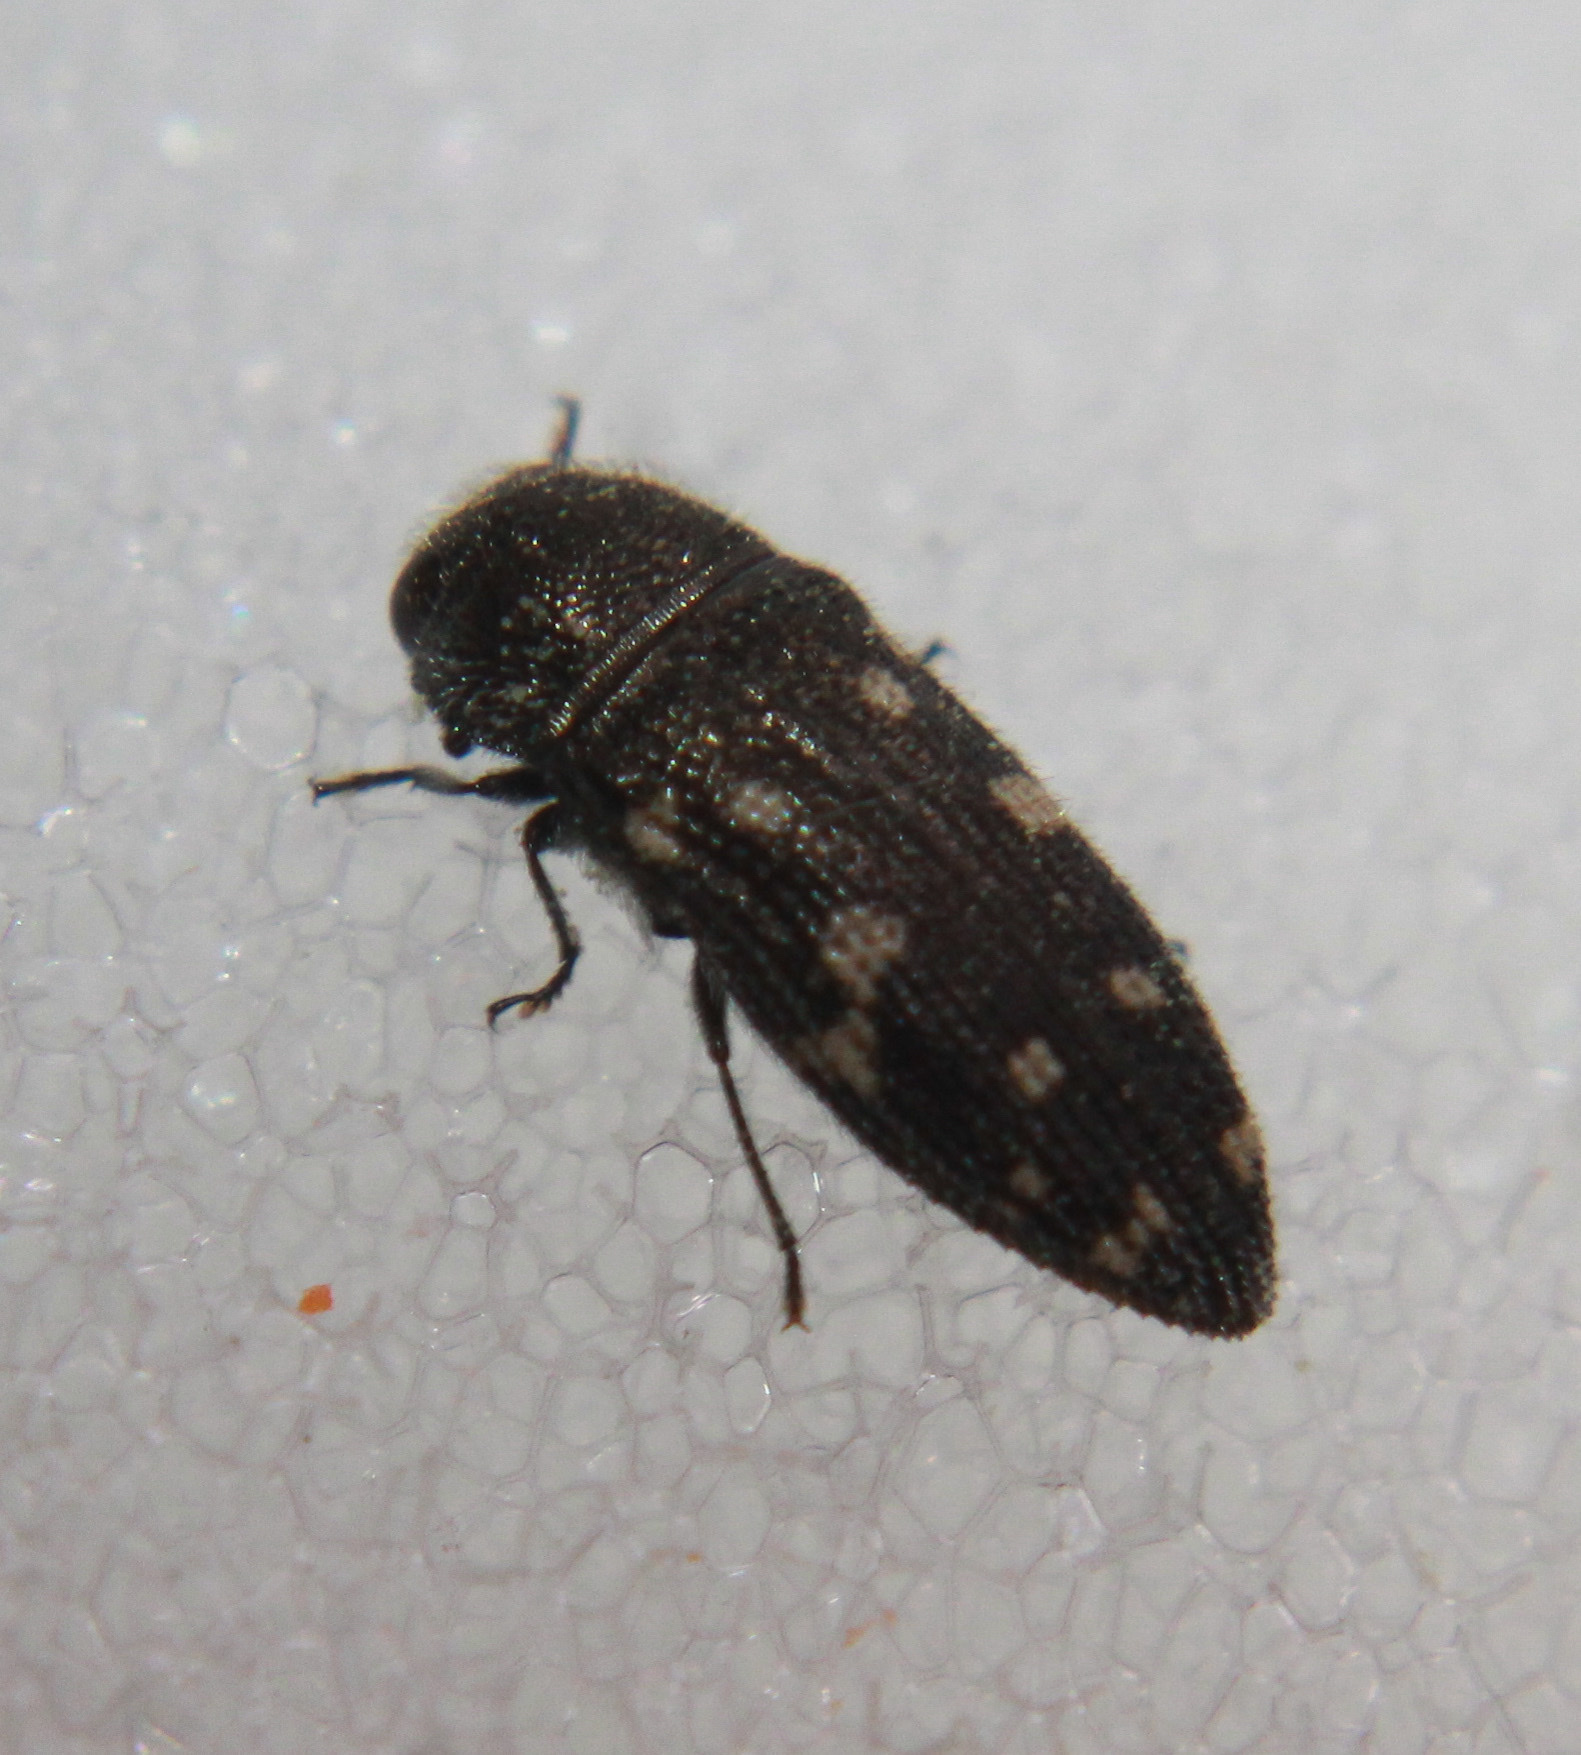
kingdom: Animalia
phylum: Arthropoda
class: Insecta
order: Coleoptera
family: Buprestidae
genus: Acmaeodera
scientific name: Acmaeodera tubulus
